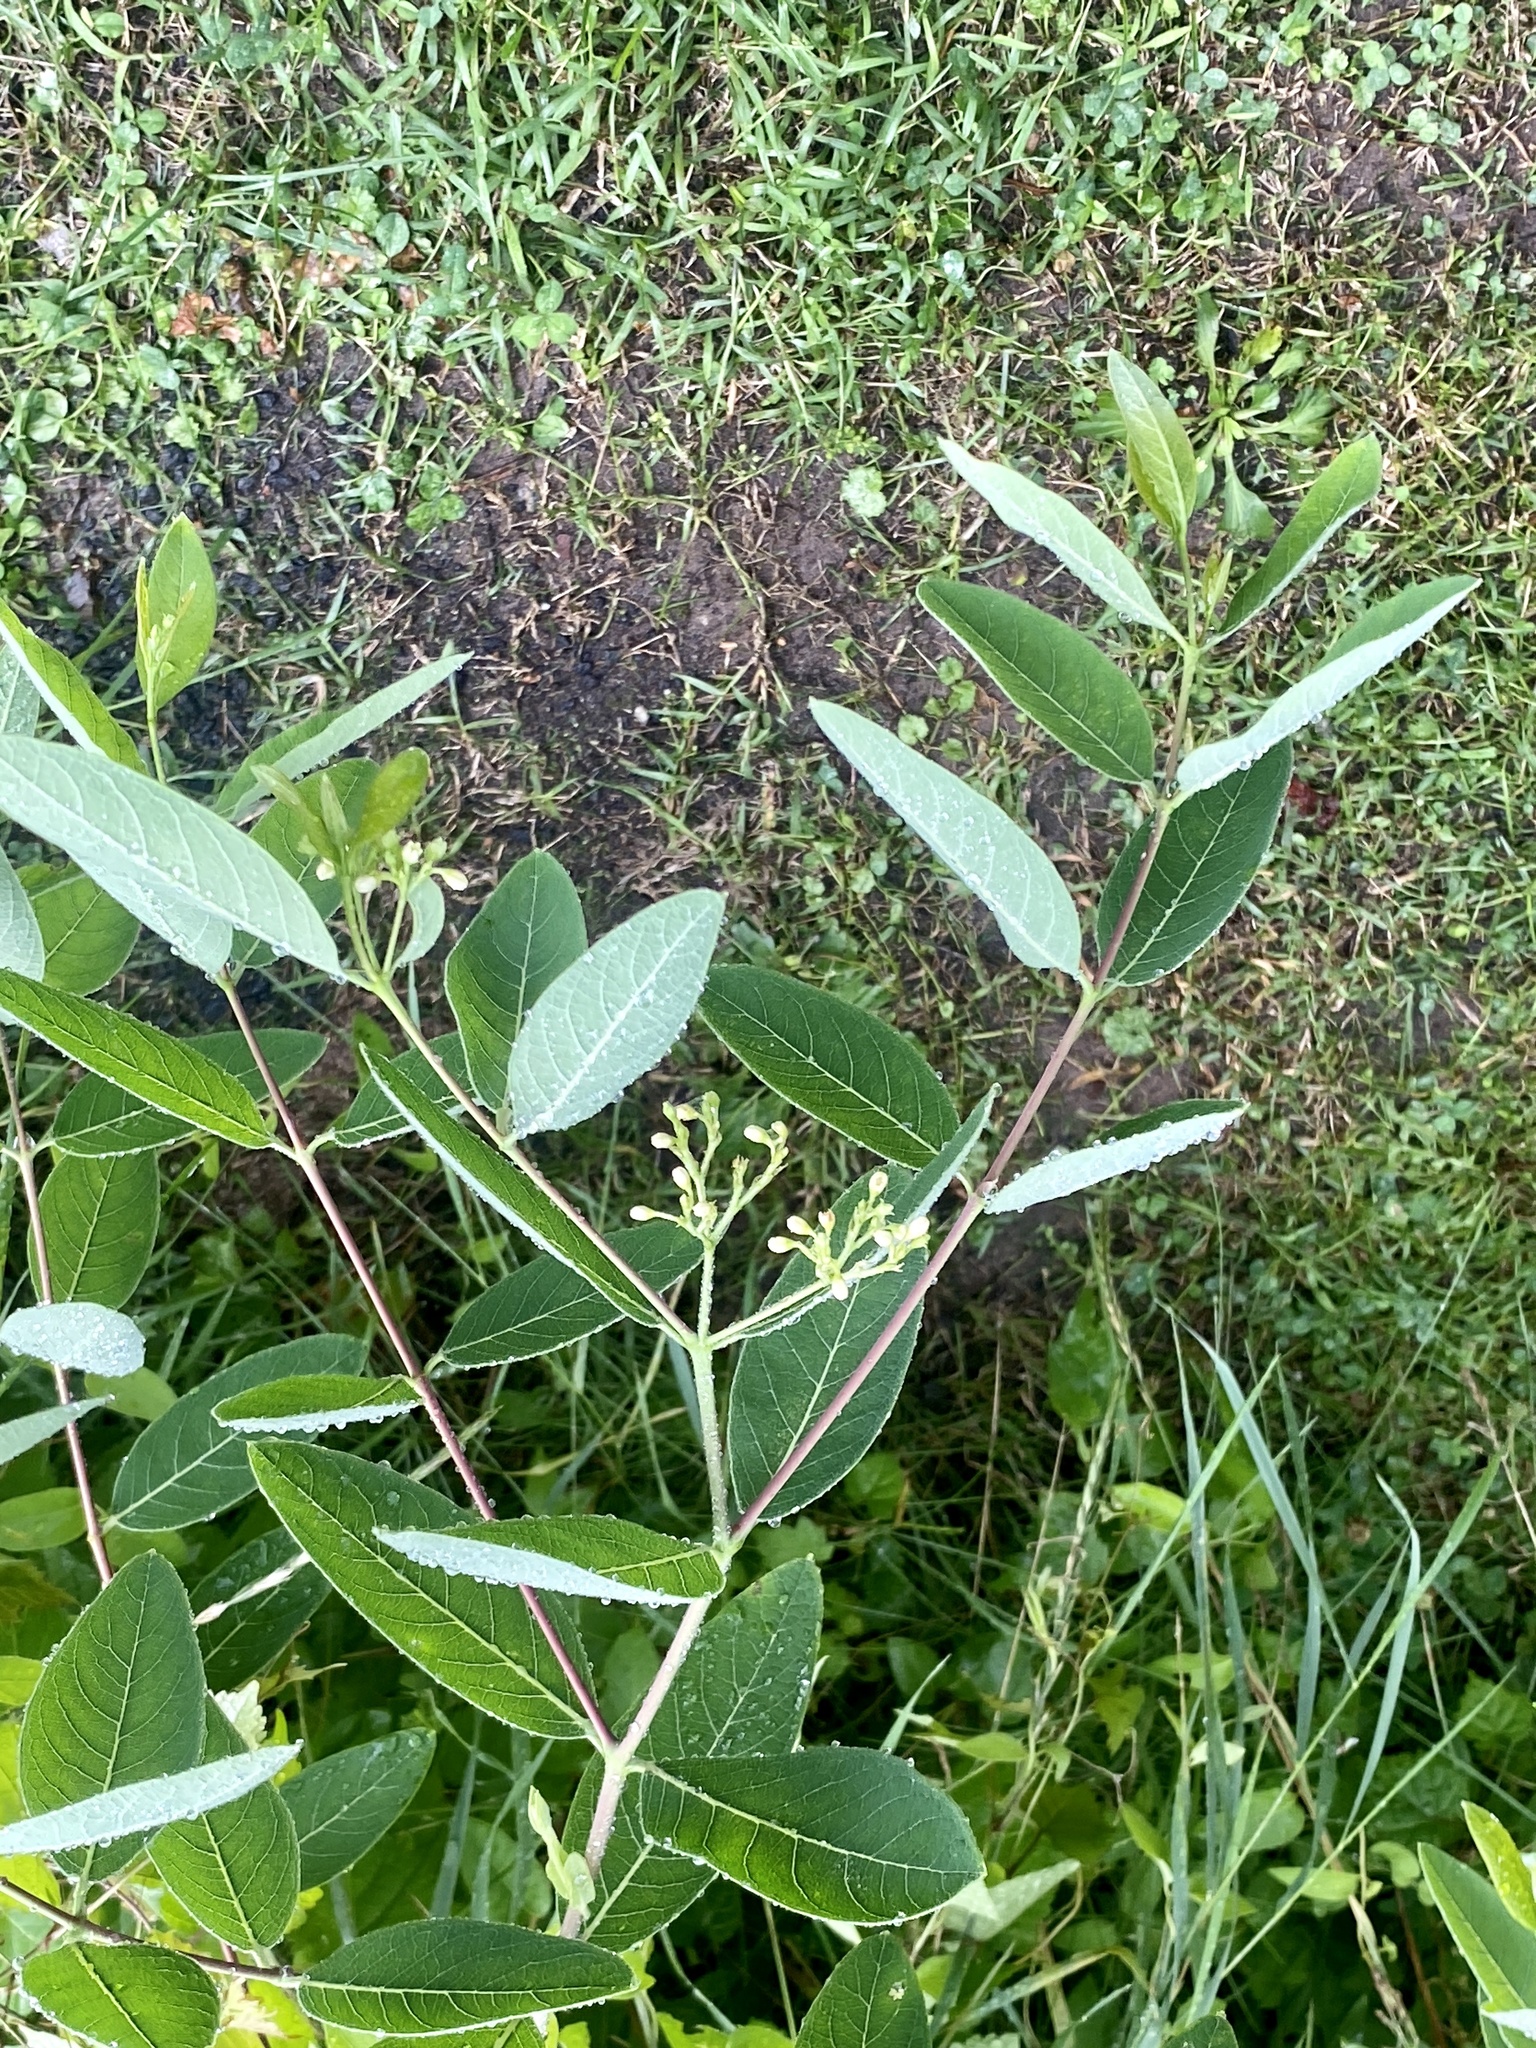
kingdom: Plantae
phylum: Tracheophyta
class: Magnoliopsida
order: Gentianales
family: Apocynaceae
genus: Apocynum
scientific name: Apocynum cannabinum
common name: Hemp dogbane
